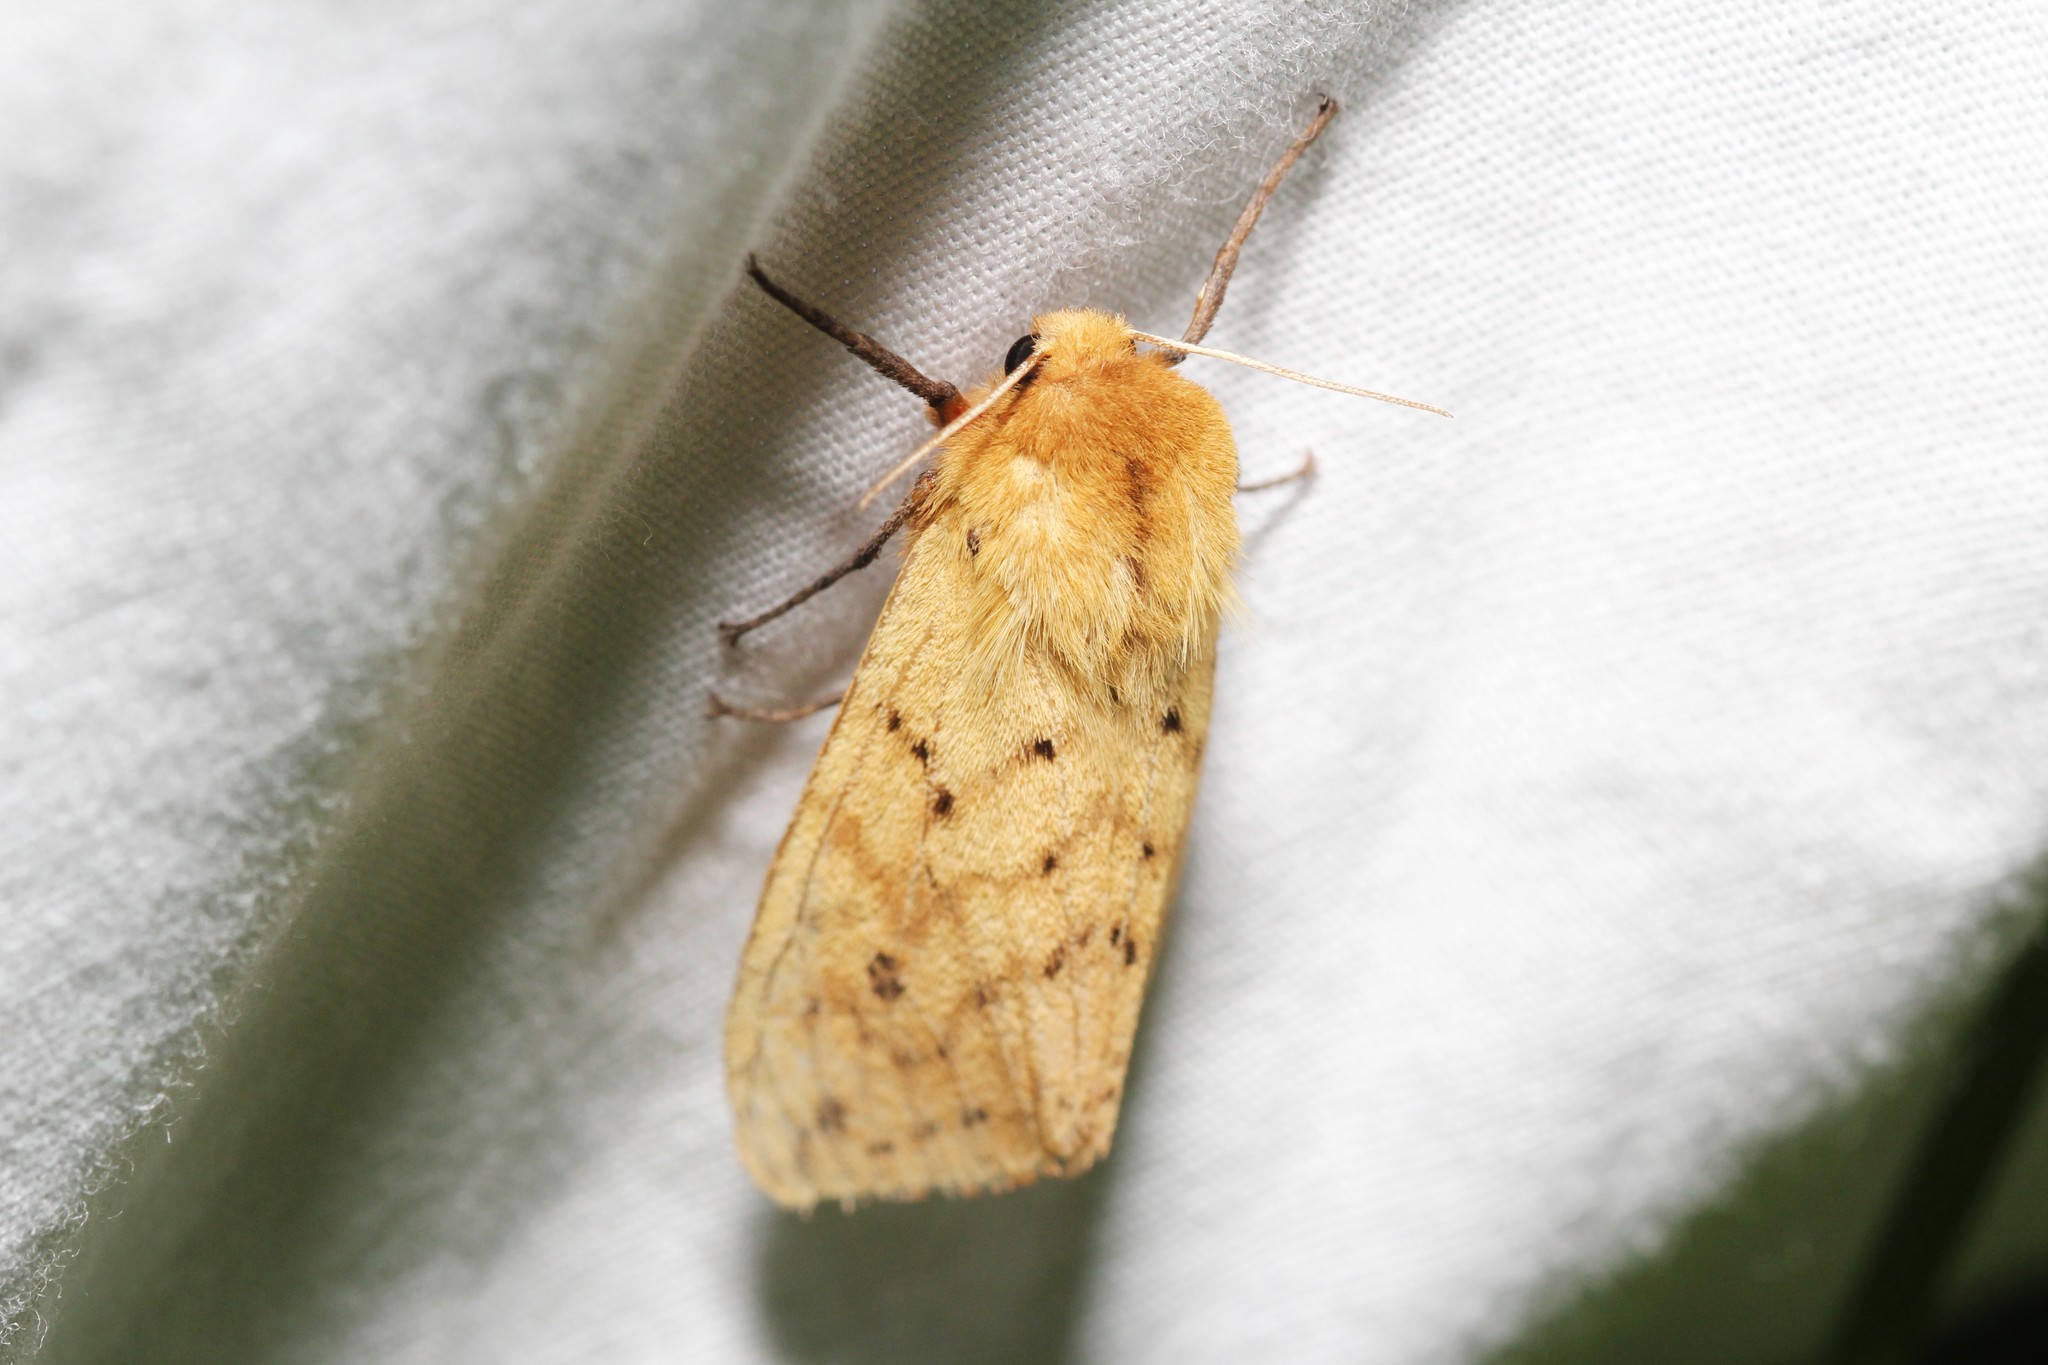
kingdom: Animalia
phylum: Arthropoda
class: Insecta
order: Lepidoptera
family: Erebidae
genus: Pyrrharctia
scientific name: Pyrrharctia isabella
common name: Isabella tiger moth
